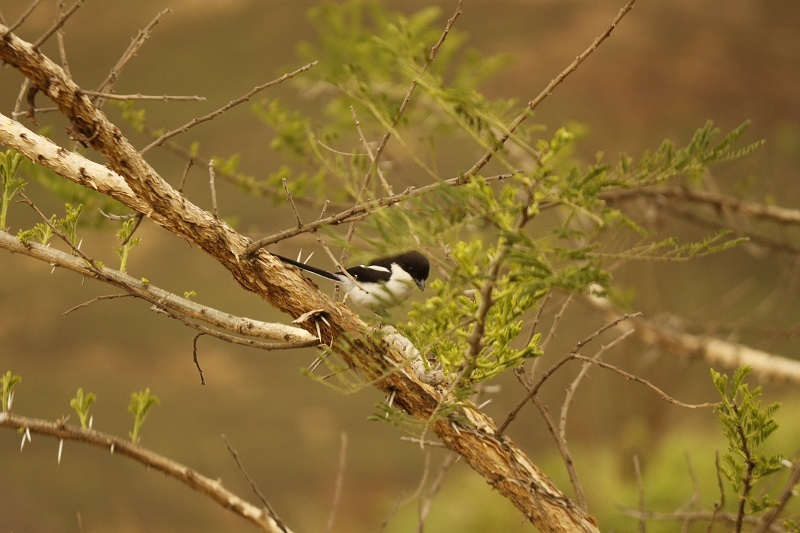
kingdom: Animalia
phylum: Chordata
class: Aves
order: Passeriformes
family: Laniidae
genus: Lanius
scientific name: Lanius collaris
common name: Southern fiscal
